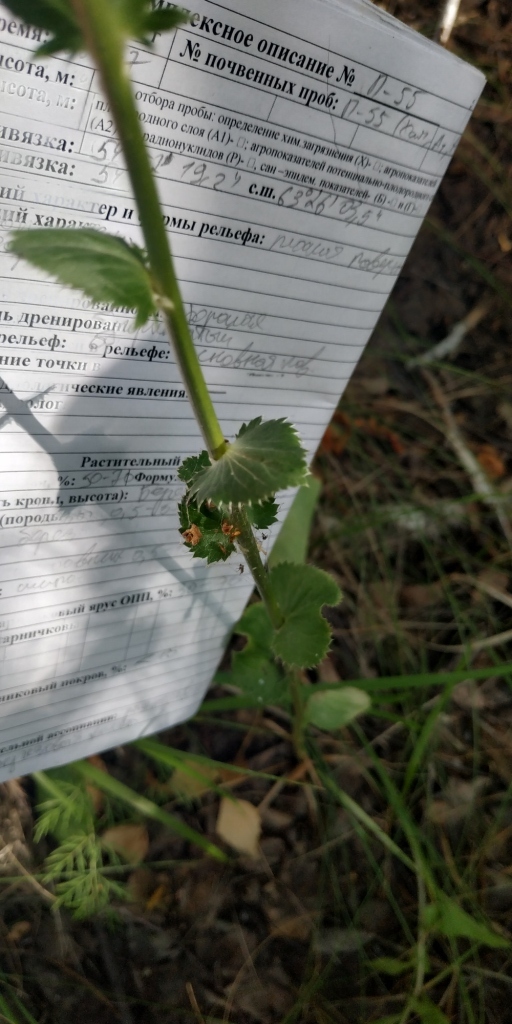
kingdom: Plantae
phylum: Tracheophyta
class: Magnoliopsida
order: Apiales
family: Apiaceae
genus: Eryngium
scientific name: Eryngium planum
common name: Blue eryngo
